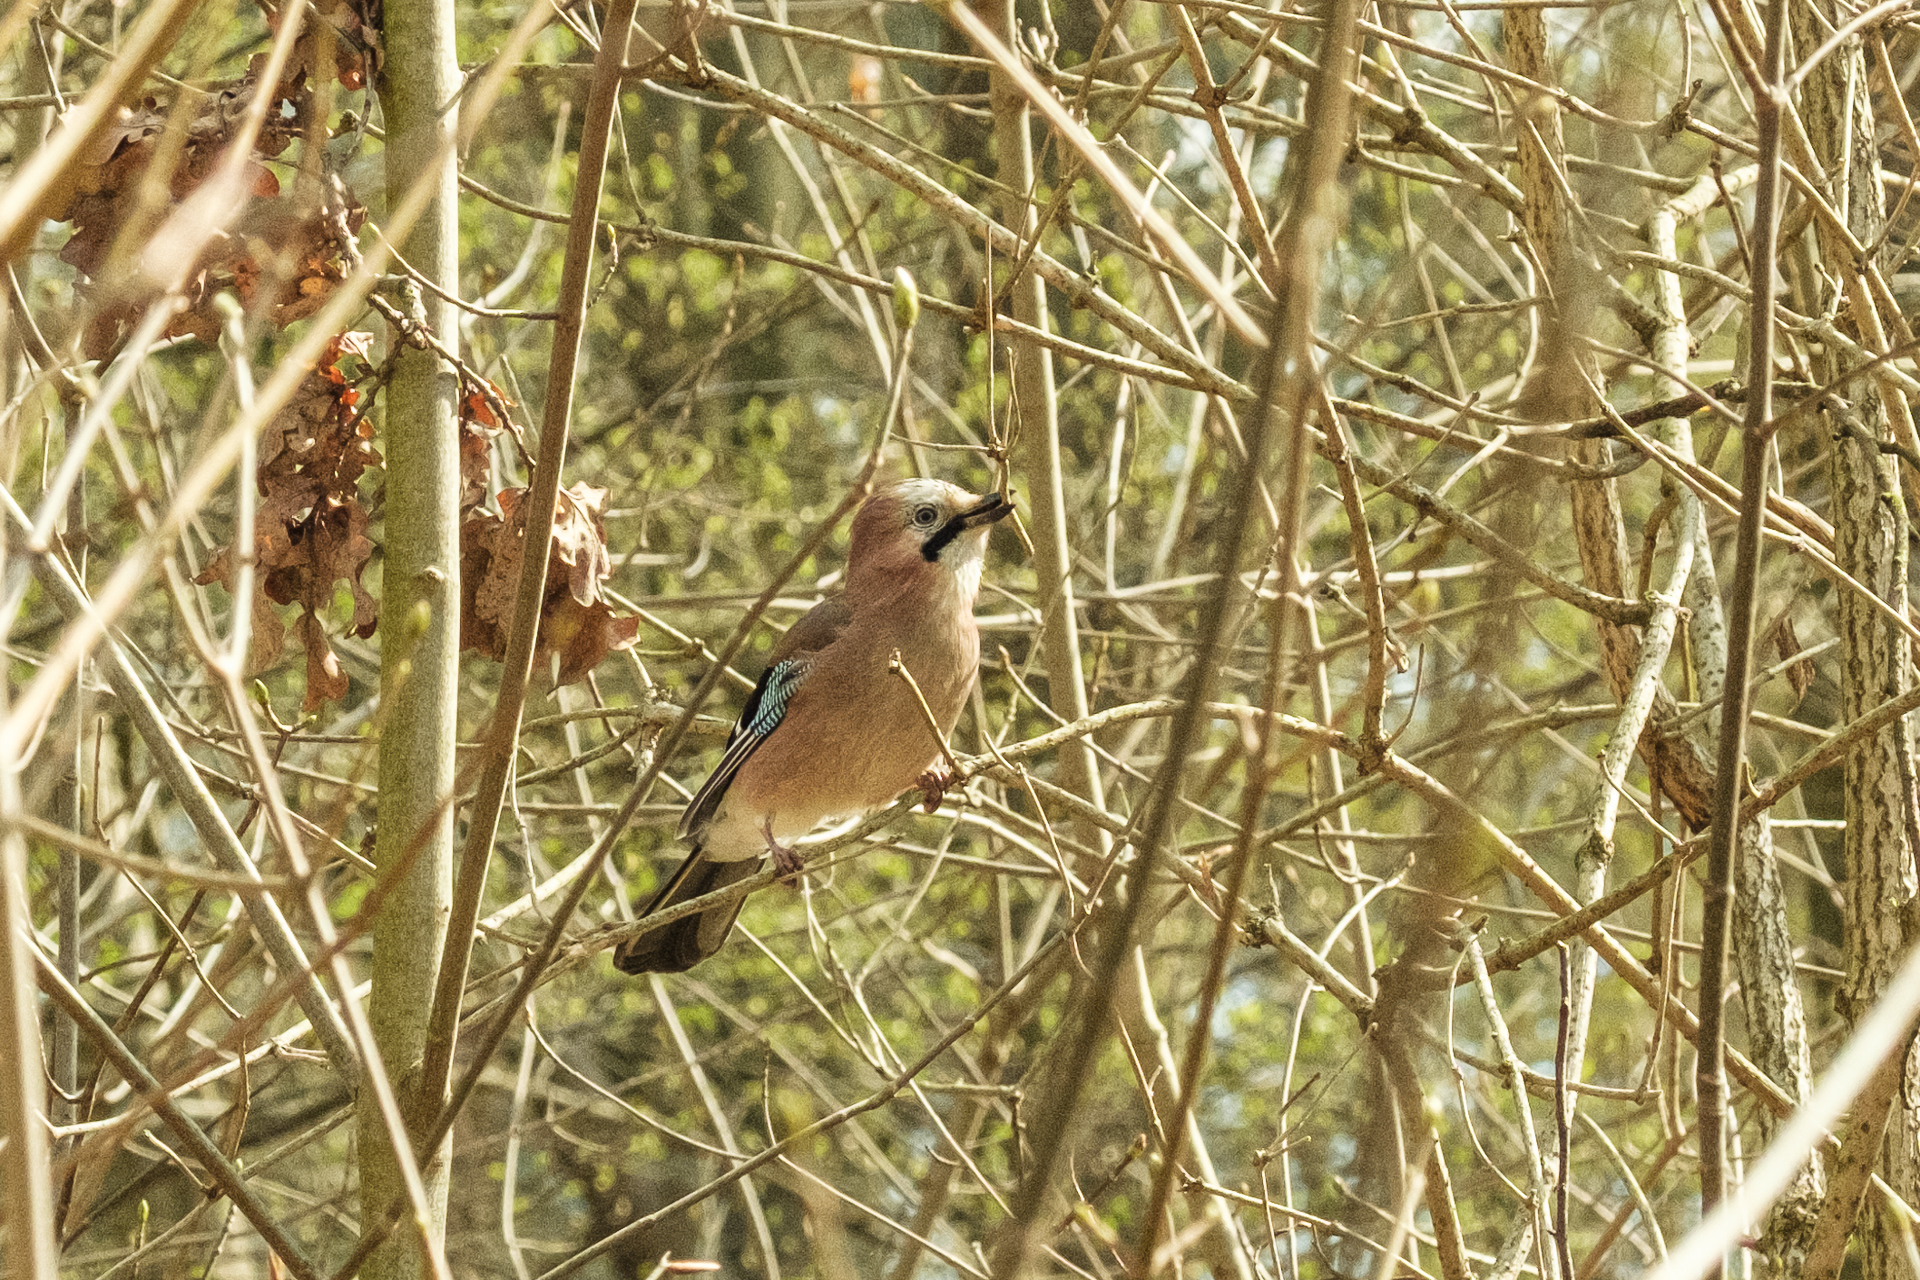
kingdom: Animalia
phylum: Chordata
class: Aves
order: Passeriformes
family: Corvidae
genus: Garrulus
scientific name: Garrulus glandarius
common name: Eurasian jay
